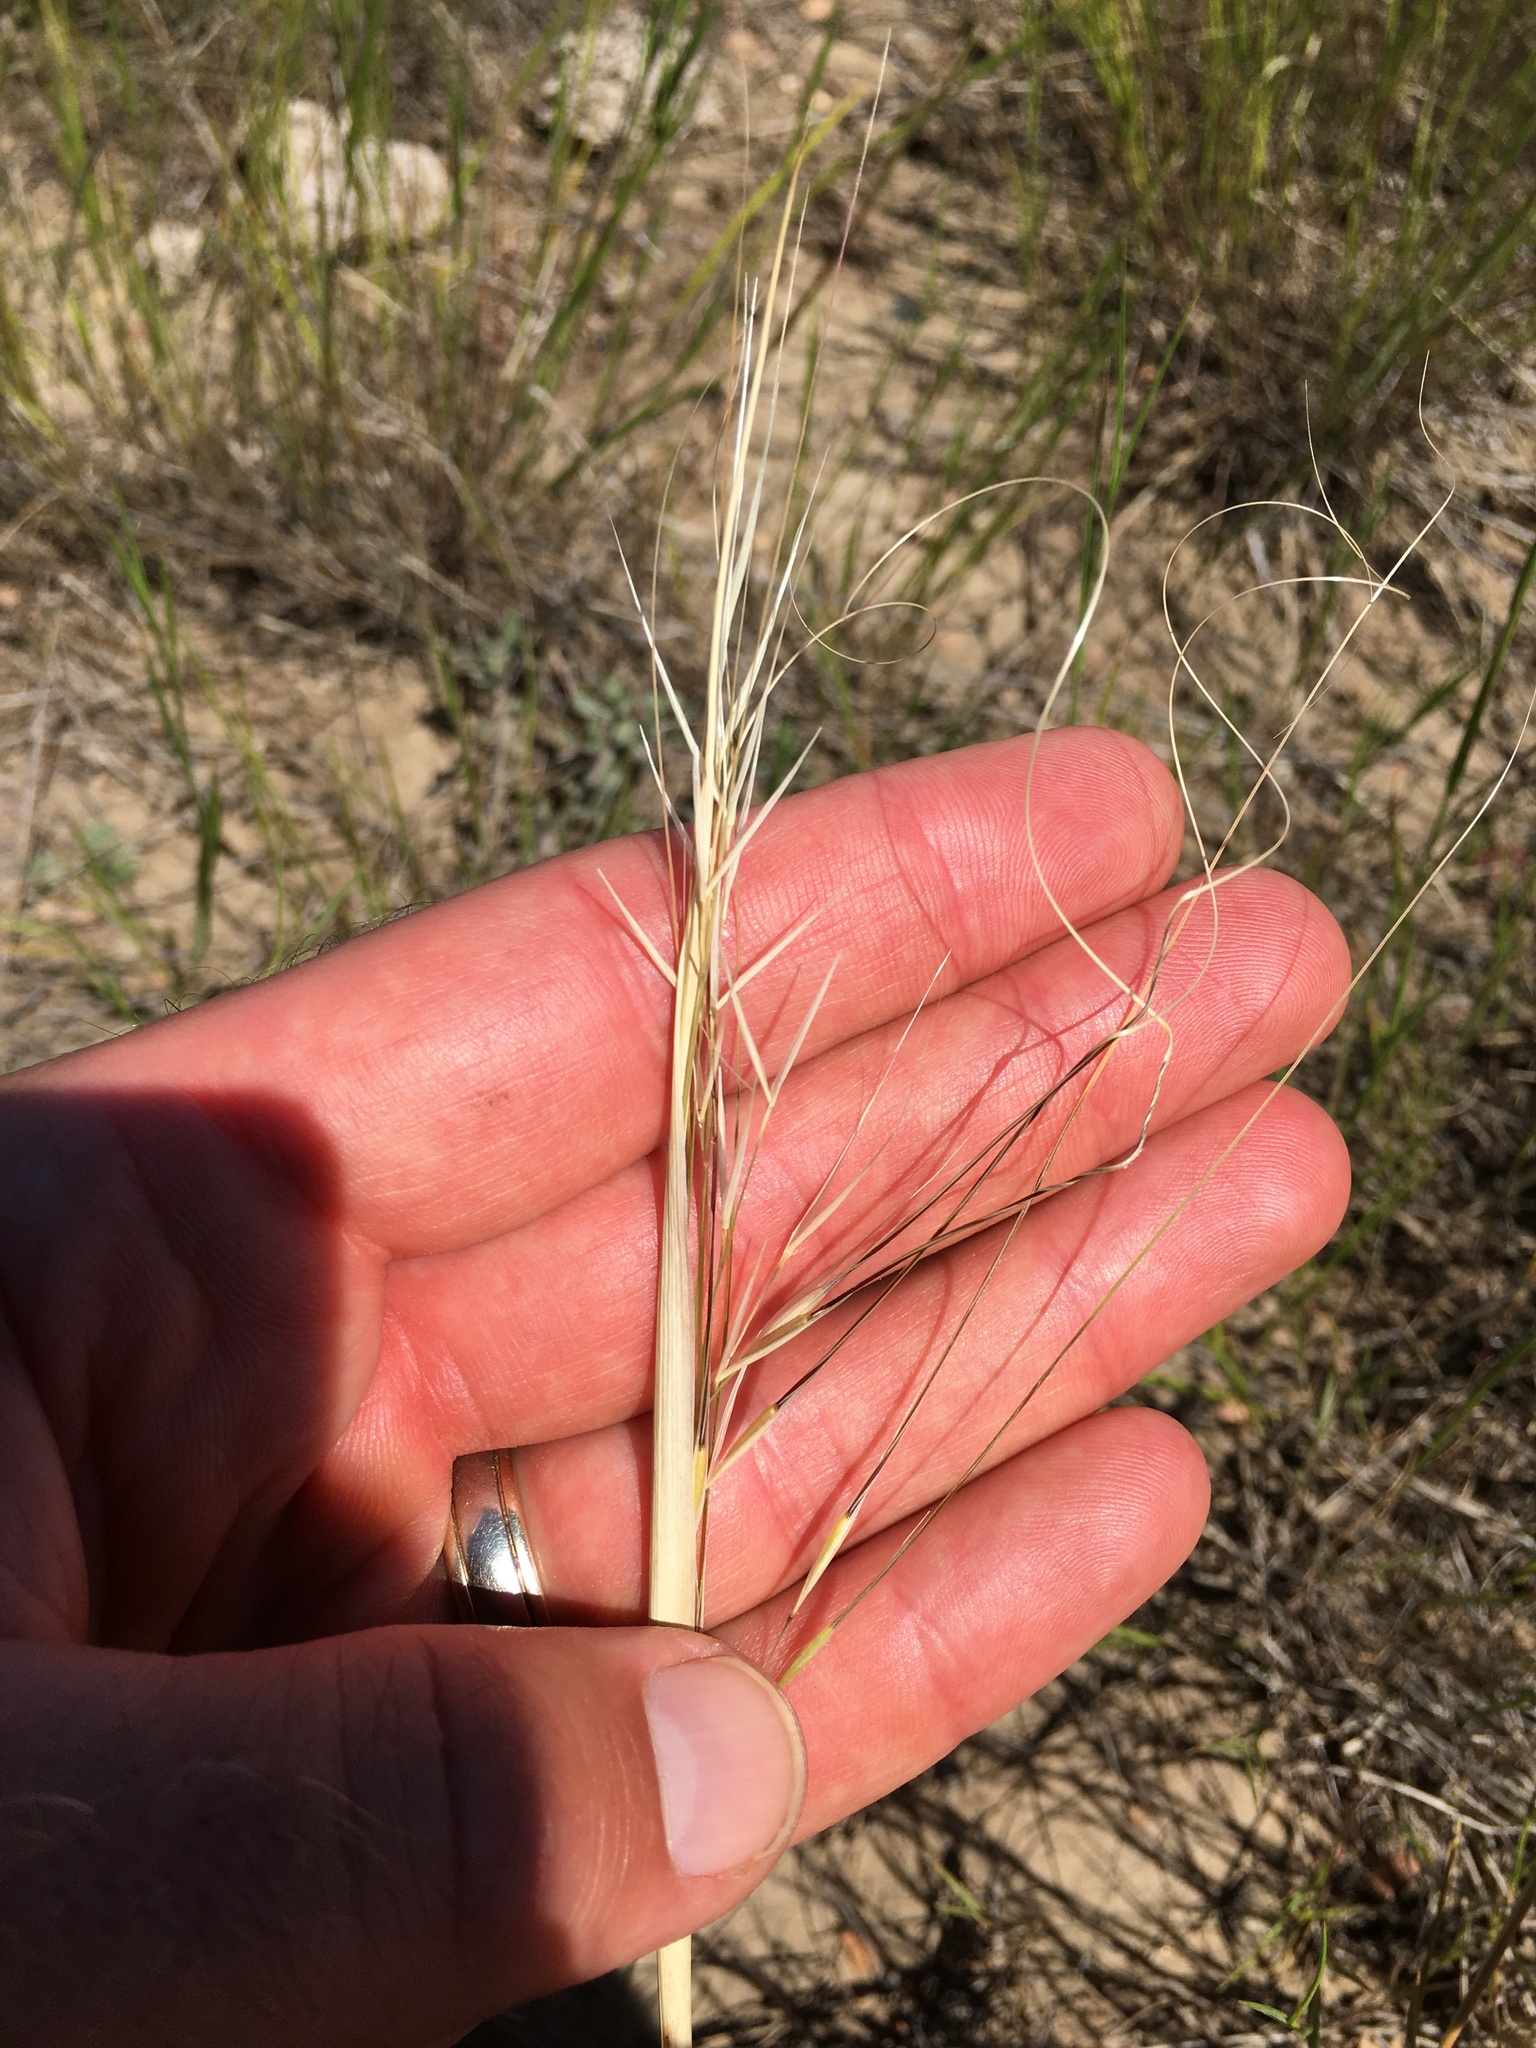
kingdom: Plantae
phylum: Tracheophyta
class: Liliopsida
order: Poales
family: Poaceae
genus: Hesperostipa
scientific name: Hesperostipa comata
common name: Needle-and-thread grass
